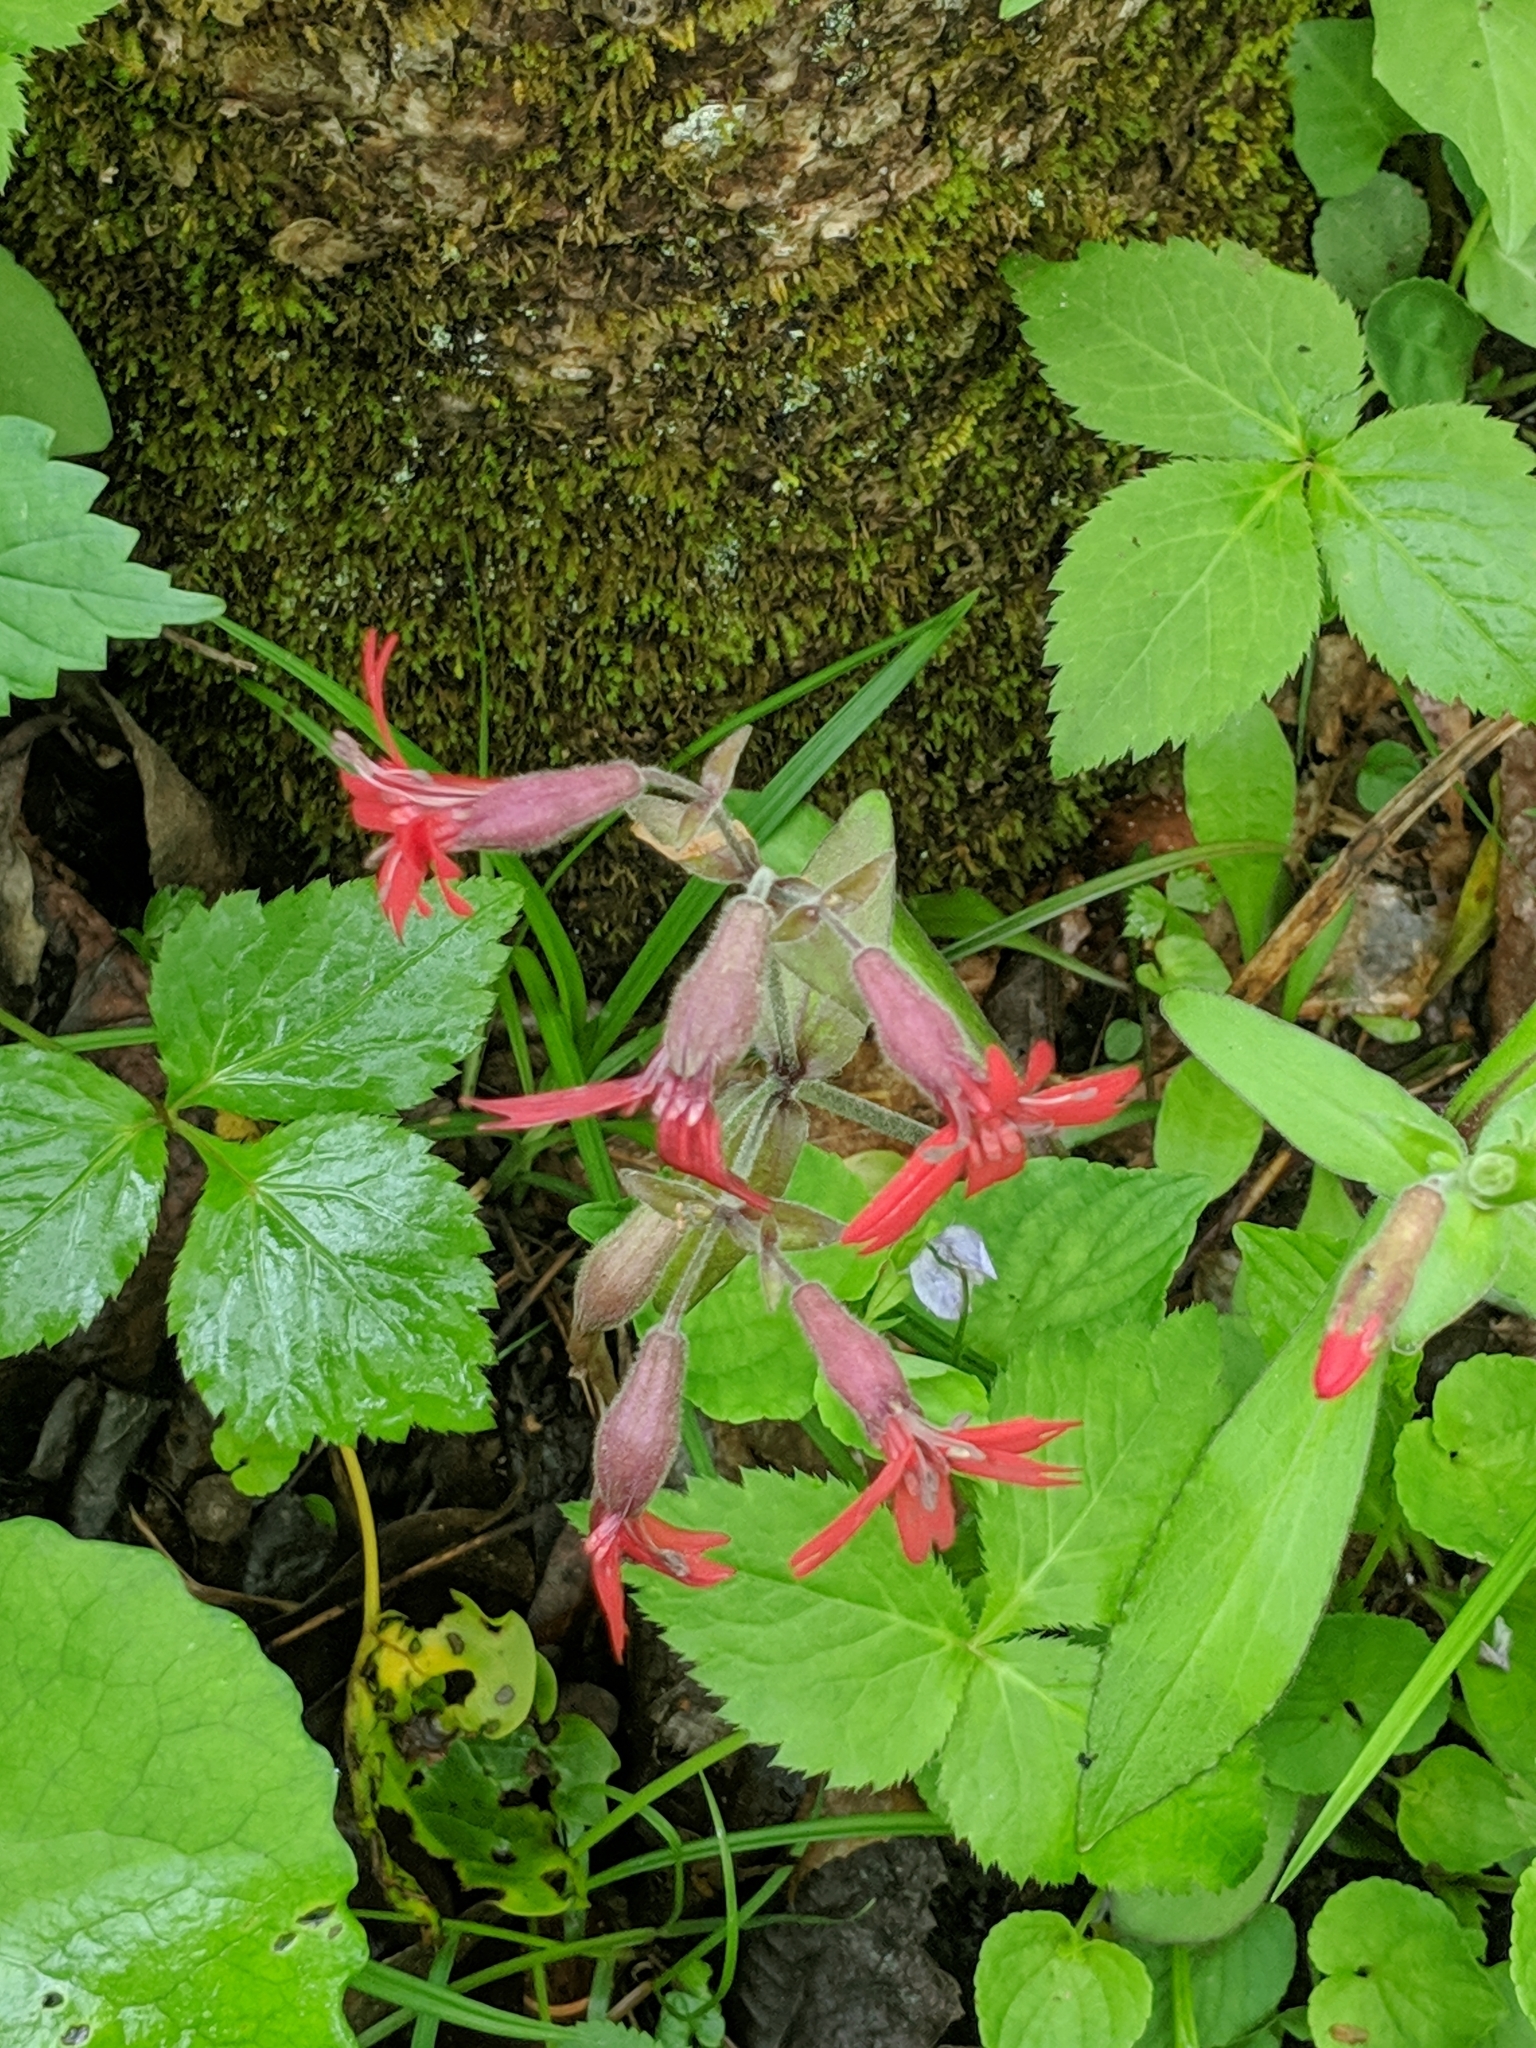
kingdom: Plantae
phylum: Tracheophyta
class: Magnoliopsida
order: Caryophyllales
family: Caryophyllaceae
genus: Silene
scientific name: Silene virginica
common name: Fire-pink
